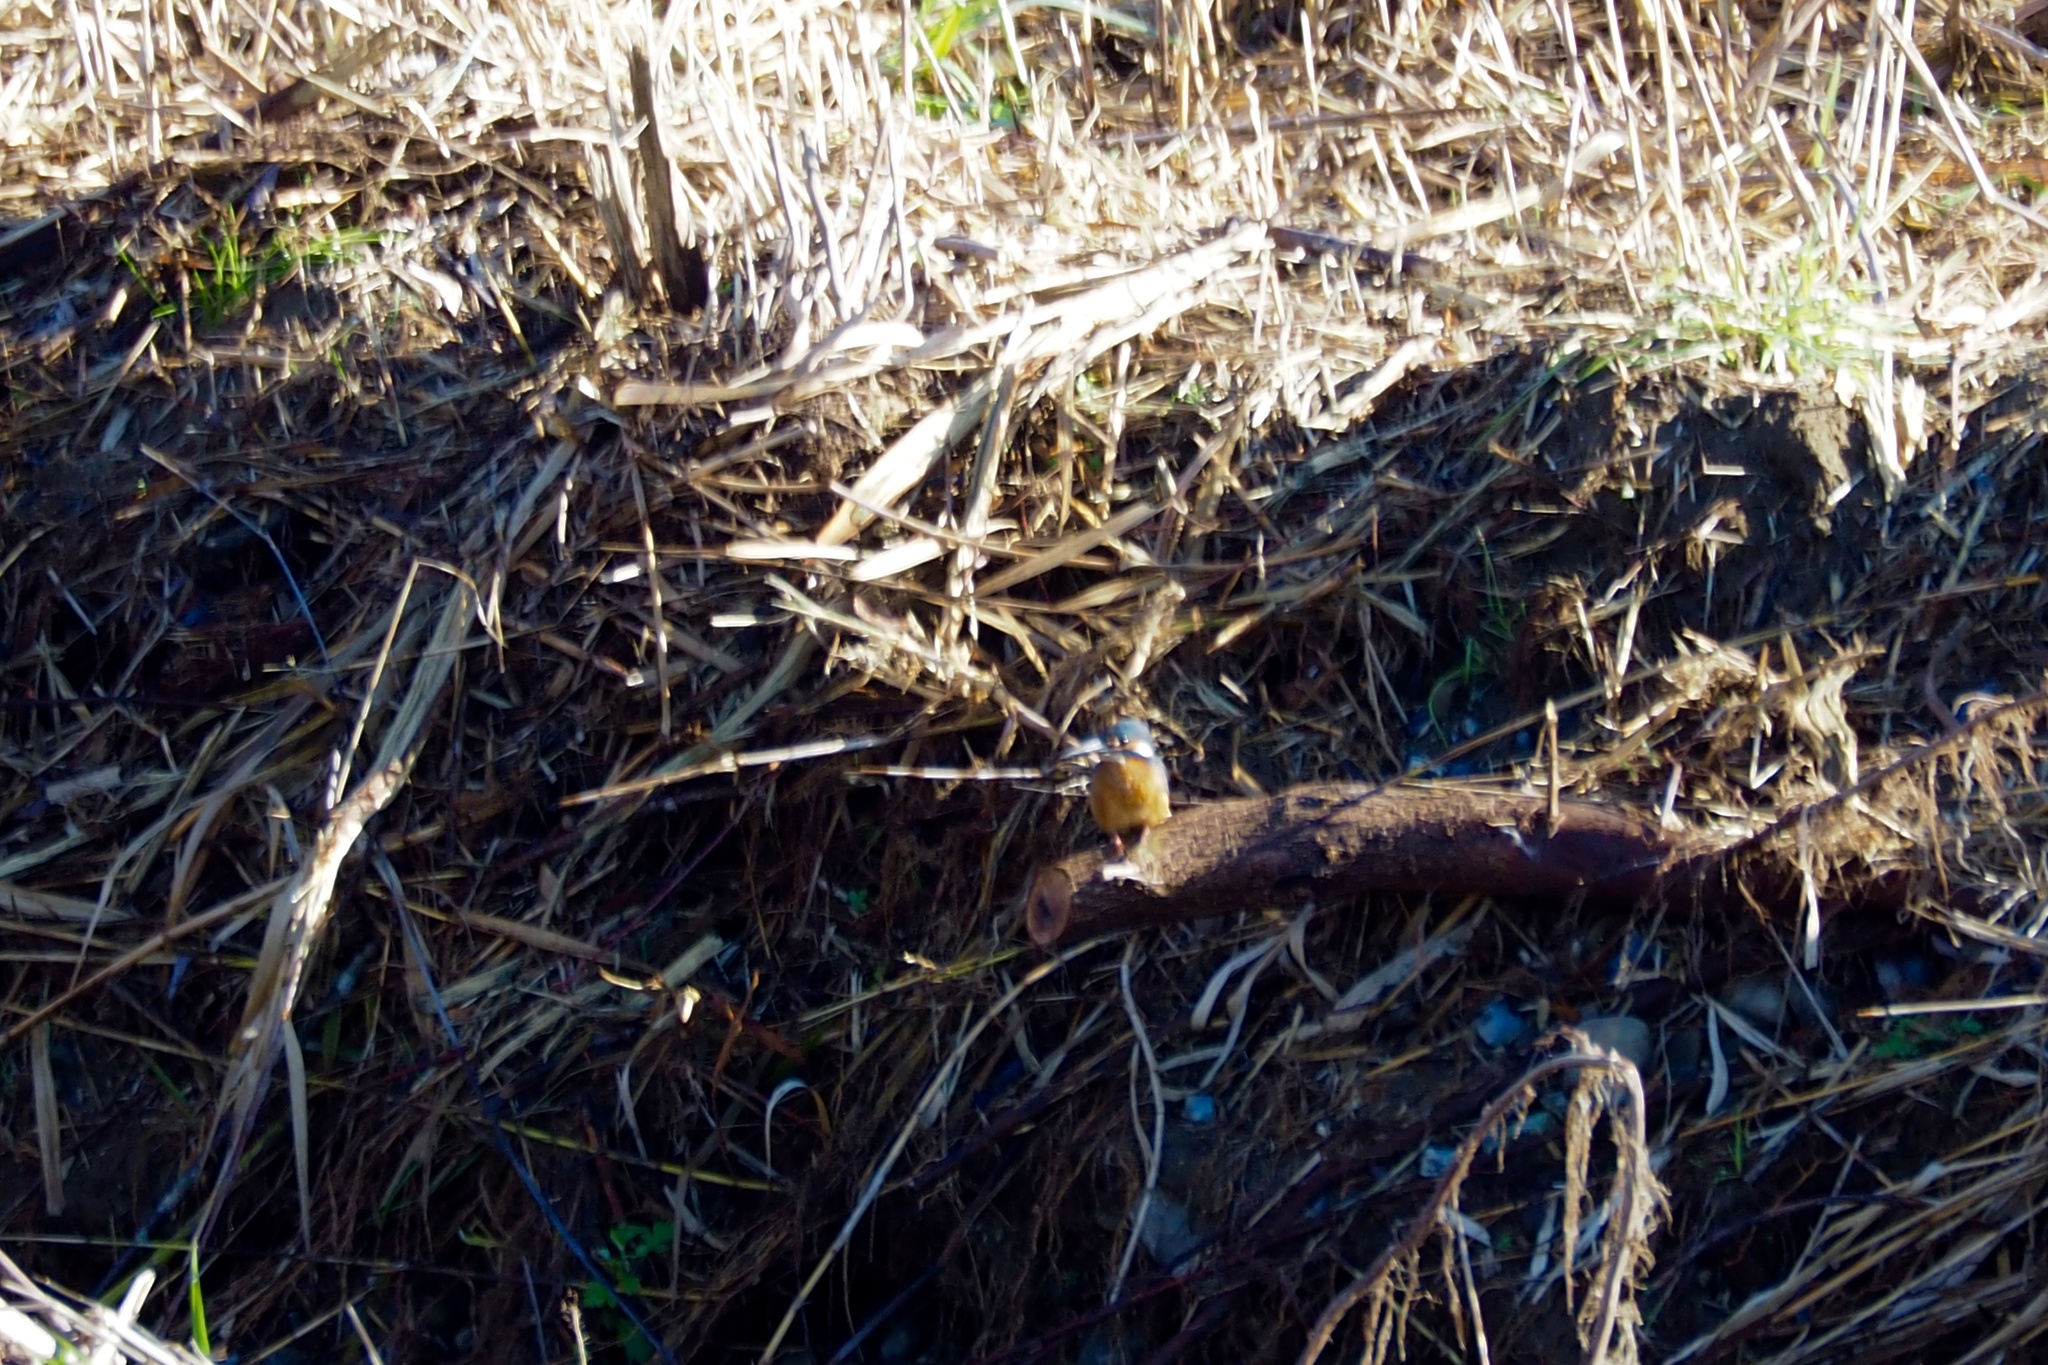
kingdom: Animalia
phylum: Chordata
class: Aves
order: Coraciiformes
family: Alcedinidae
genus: Alcedo
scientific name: Alcedo atthis
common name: Common kingfisher
